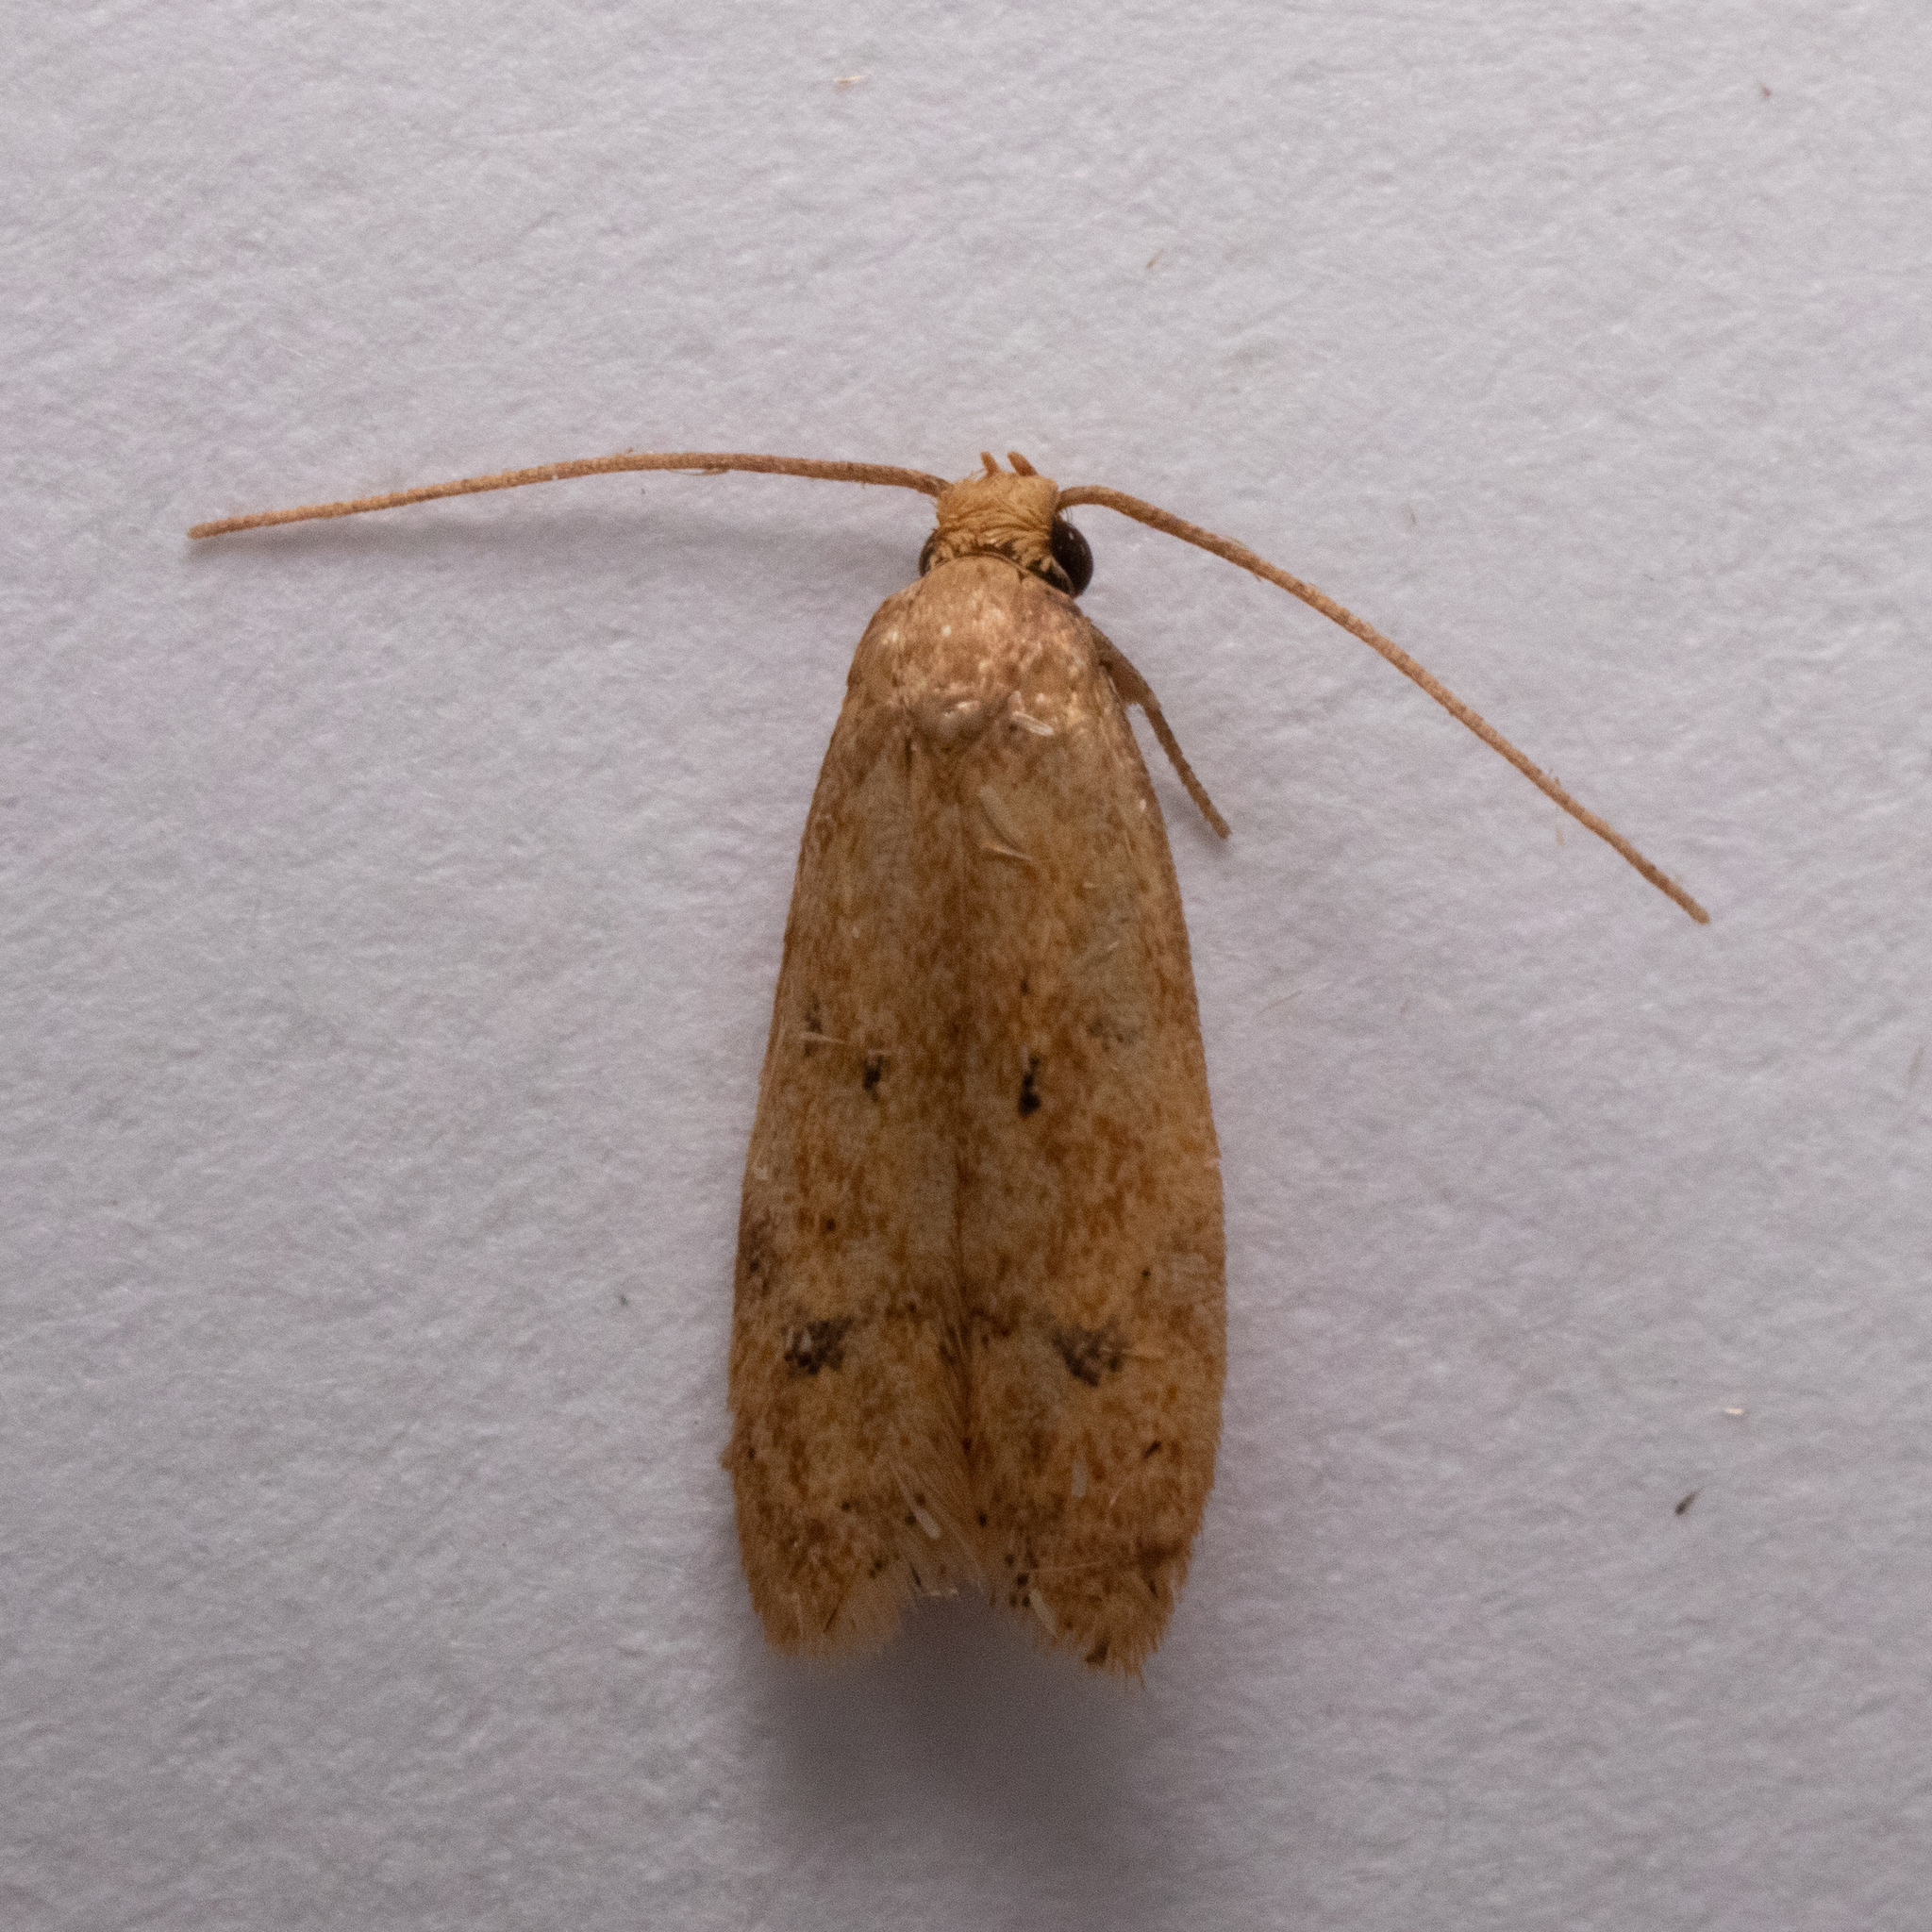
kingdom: Animalia
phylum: Arthropoda
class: Insecta
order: Lepidoptera
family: Autostichidae
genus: Gerdana
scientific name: Gerdana caritella
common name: Gerdana moth
